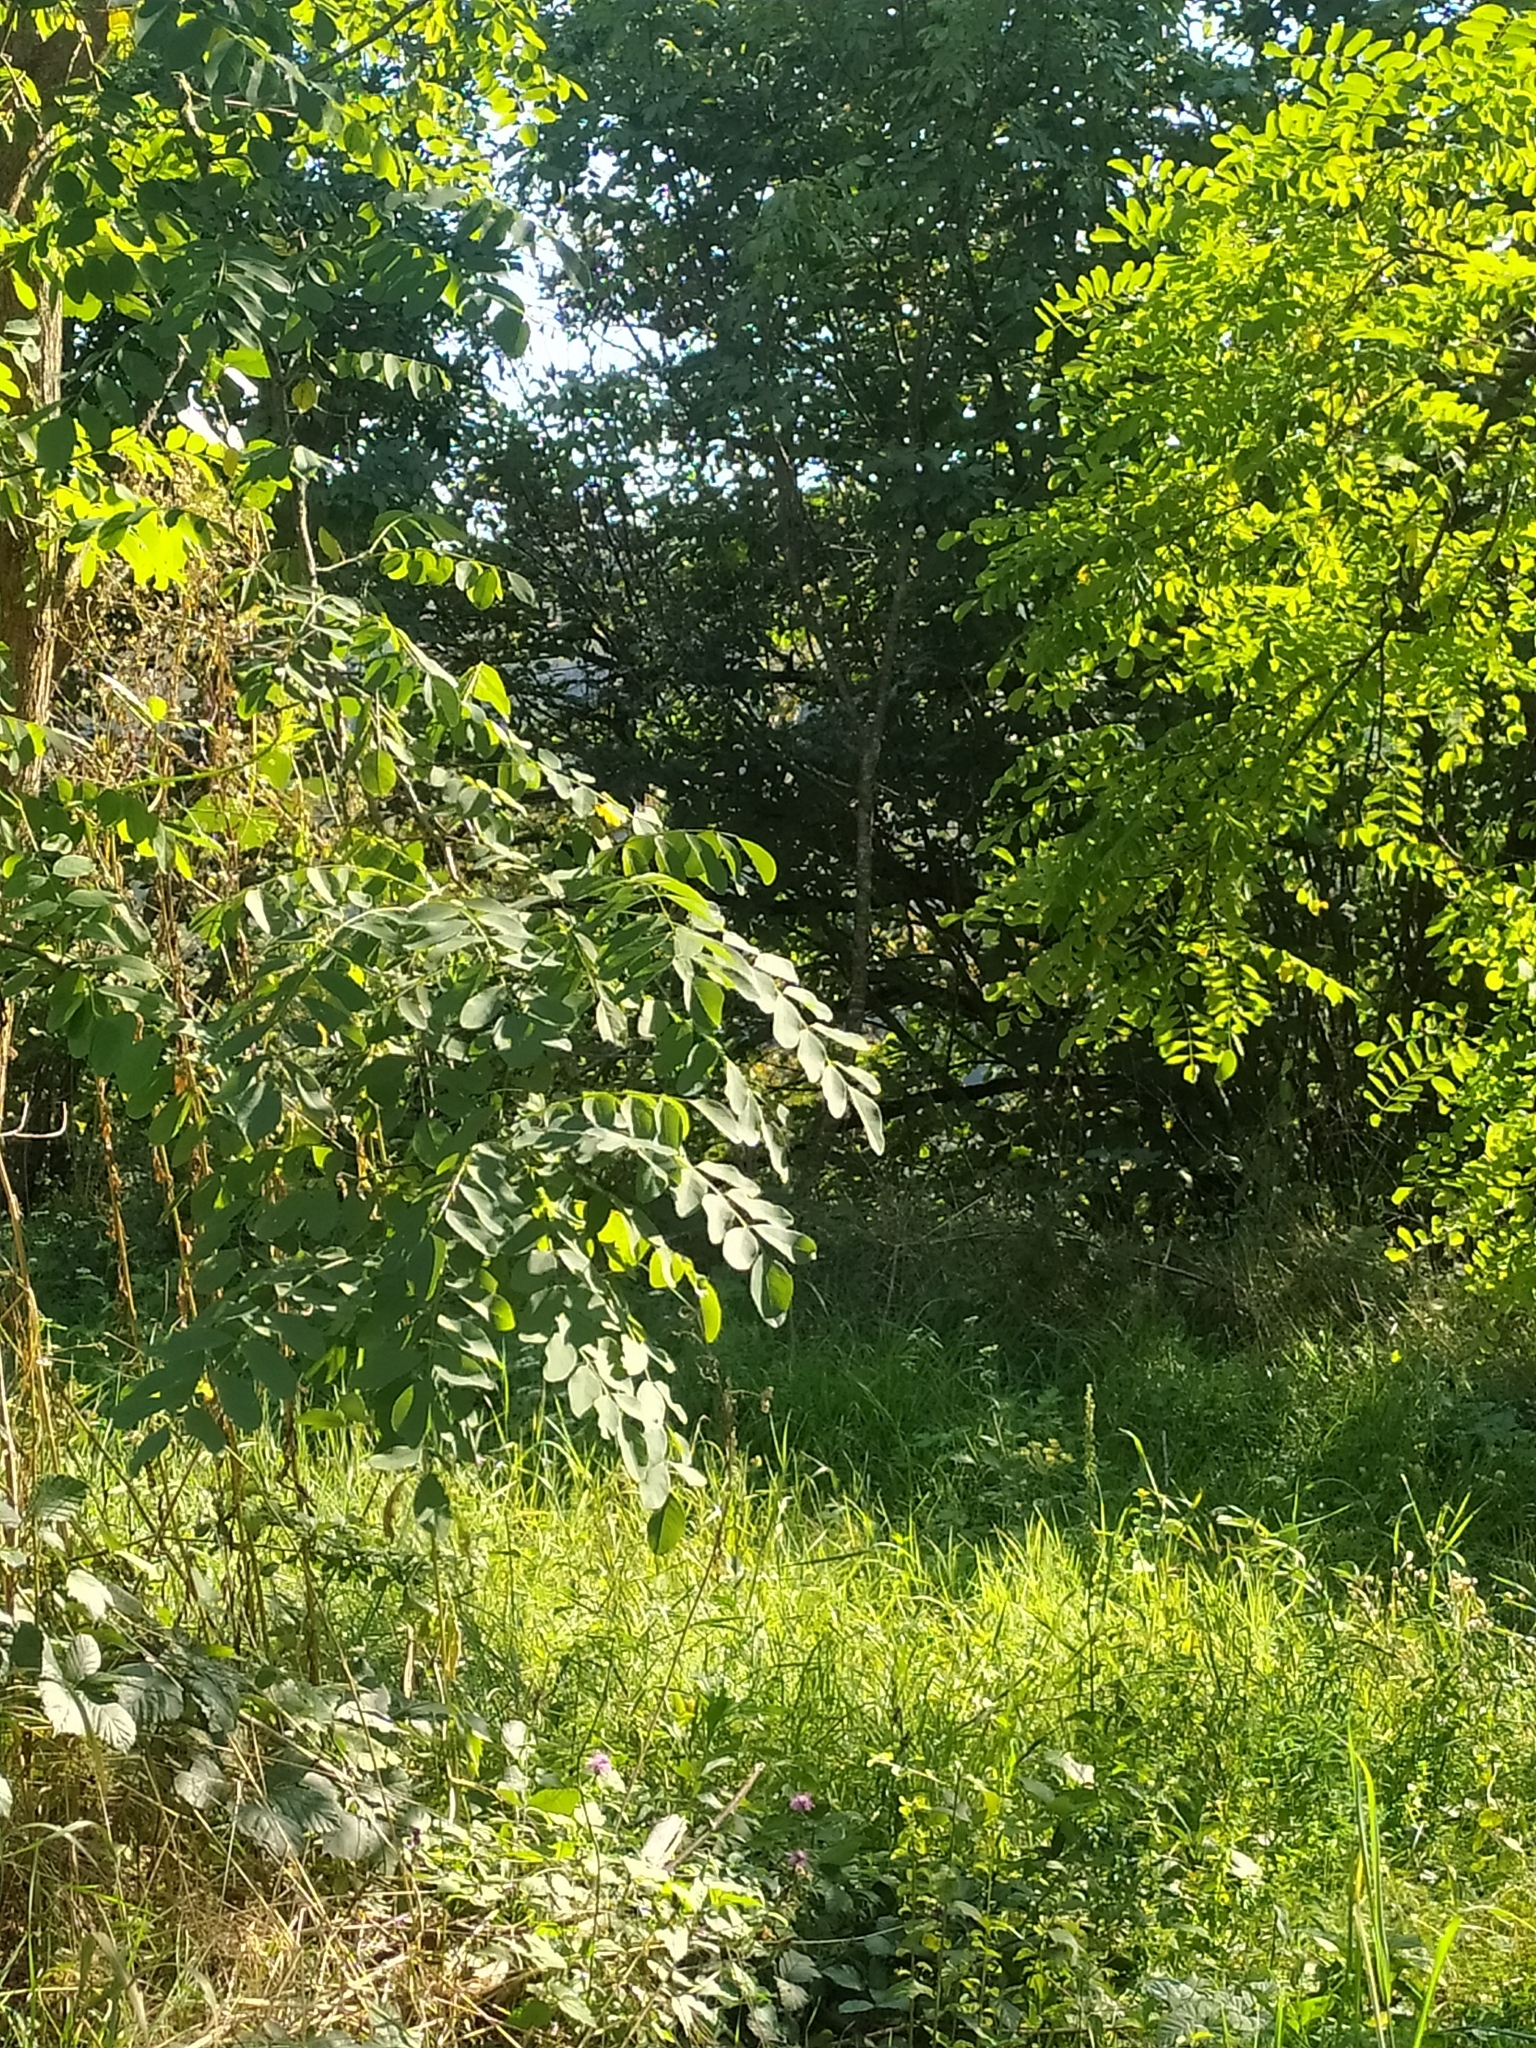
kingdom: Plantae
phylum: Tracheophyta
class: Magnoliopsida
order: Fabales
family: Fabaceae
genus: Robinia
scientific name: Robinia pseudoacacia
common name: Black locust
